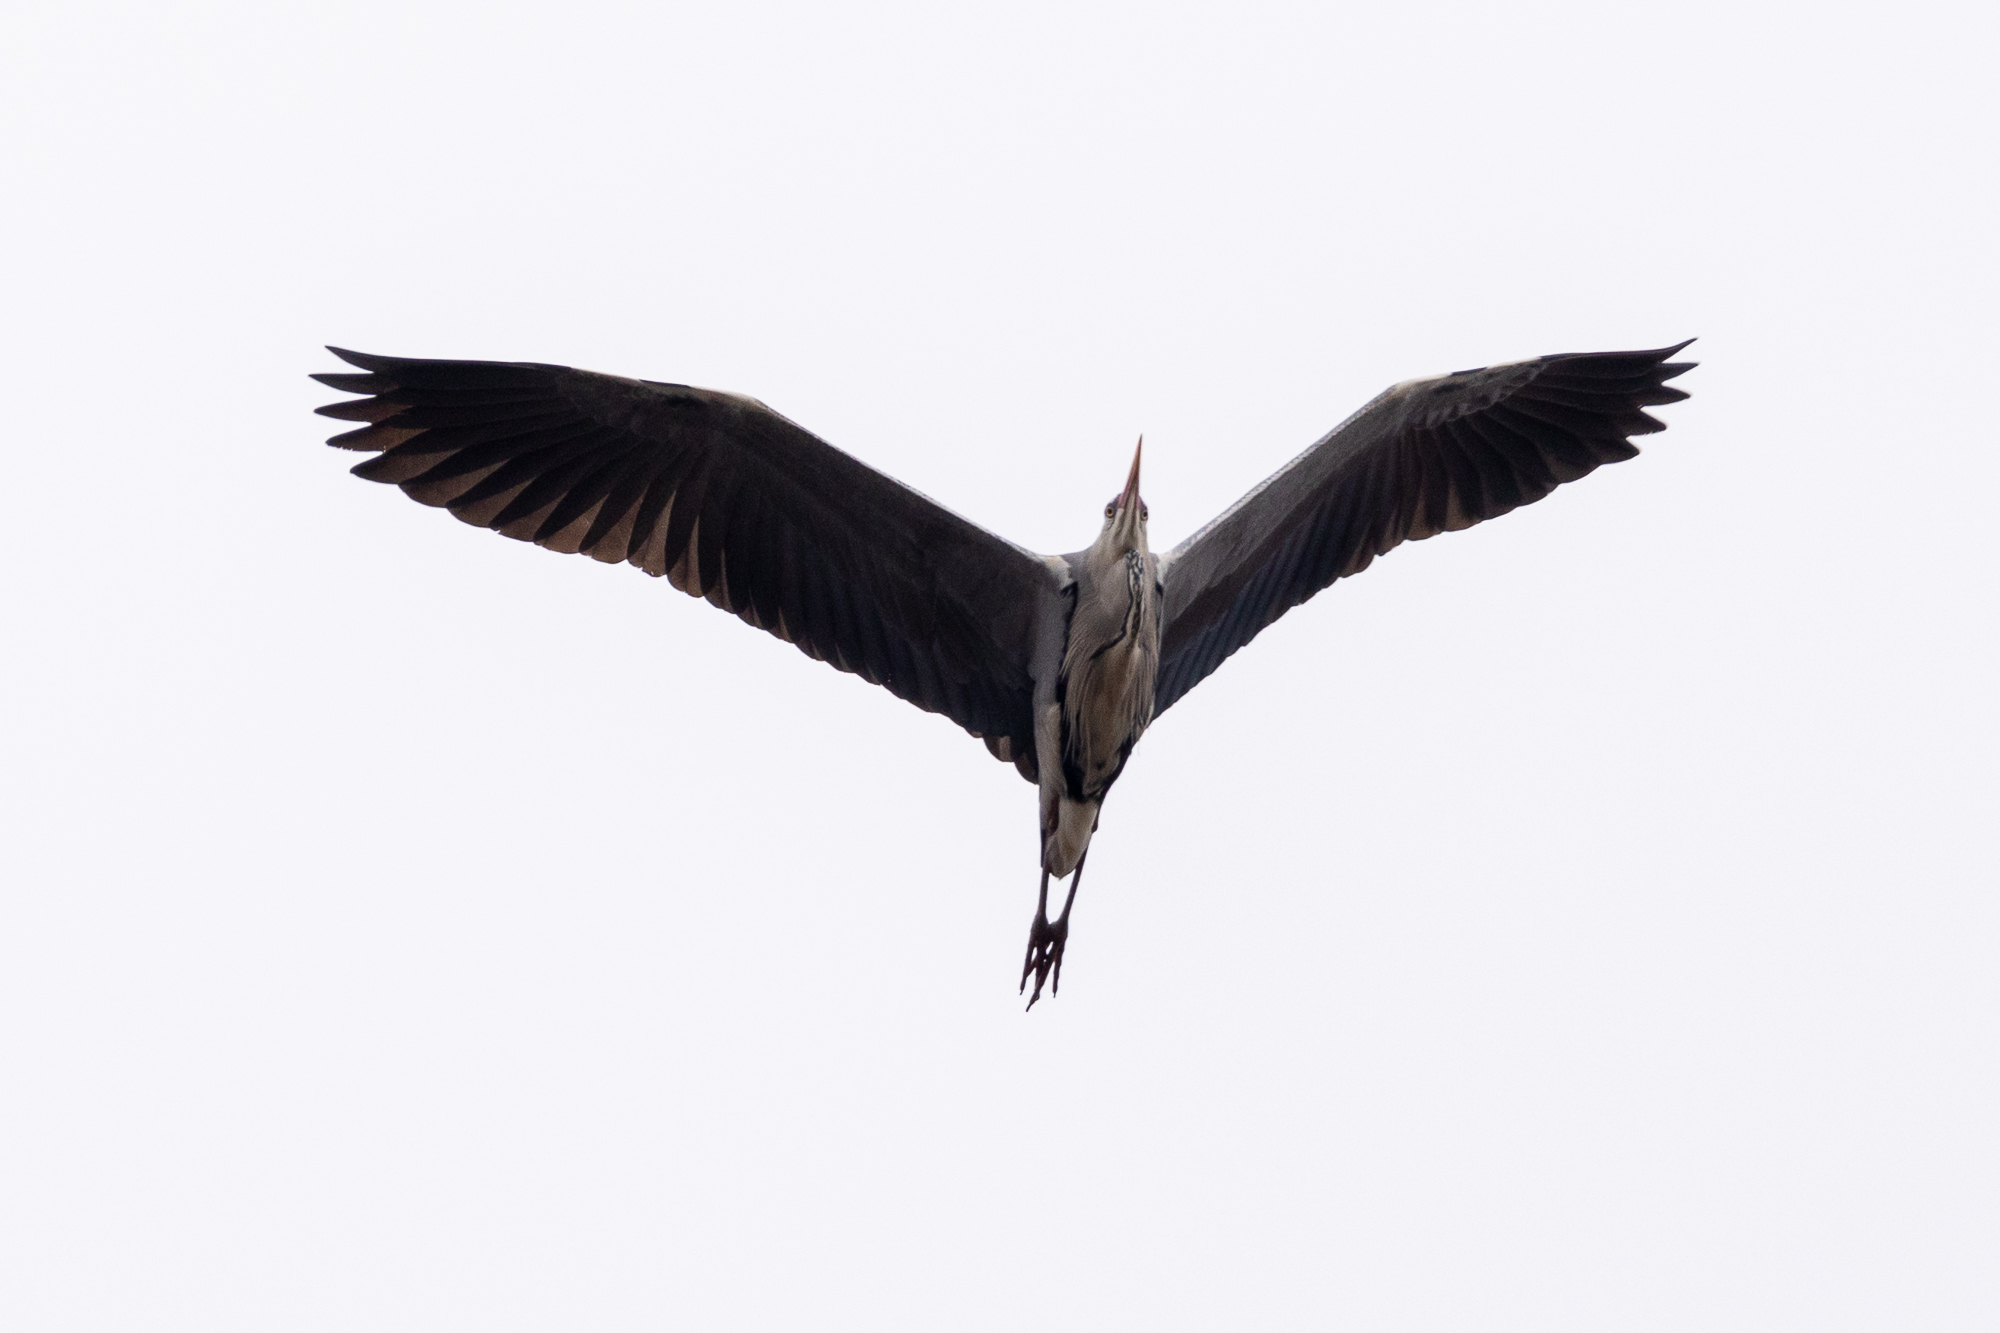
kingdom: Animalia
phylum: Chordata
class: Aves
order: Pelecaniformes
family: Ardeidae
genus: Ardea
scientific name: Ardea cinerea
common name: Grey heron
